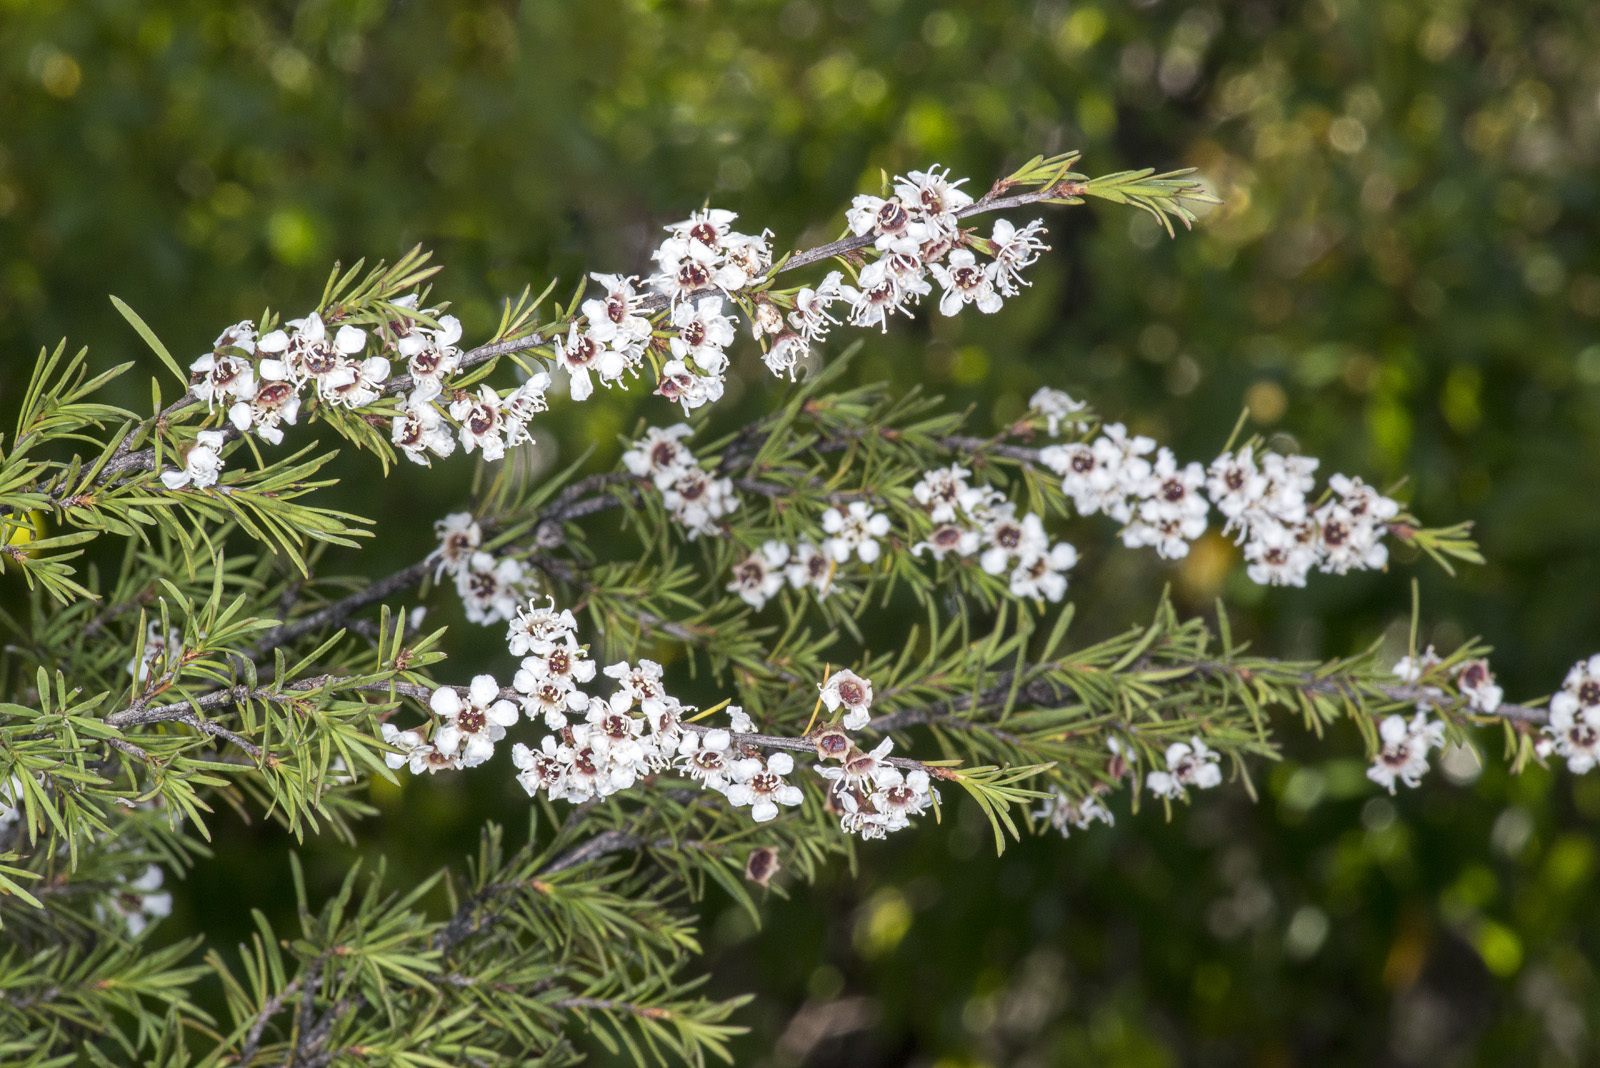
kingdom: Plantae
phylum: Tracheophyta
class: Magnoliopsida
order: Myrtales
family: Myrtaceae
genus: Kunzea
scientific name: Kunzea ericoides
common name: Burgan
